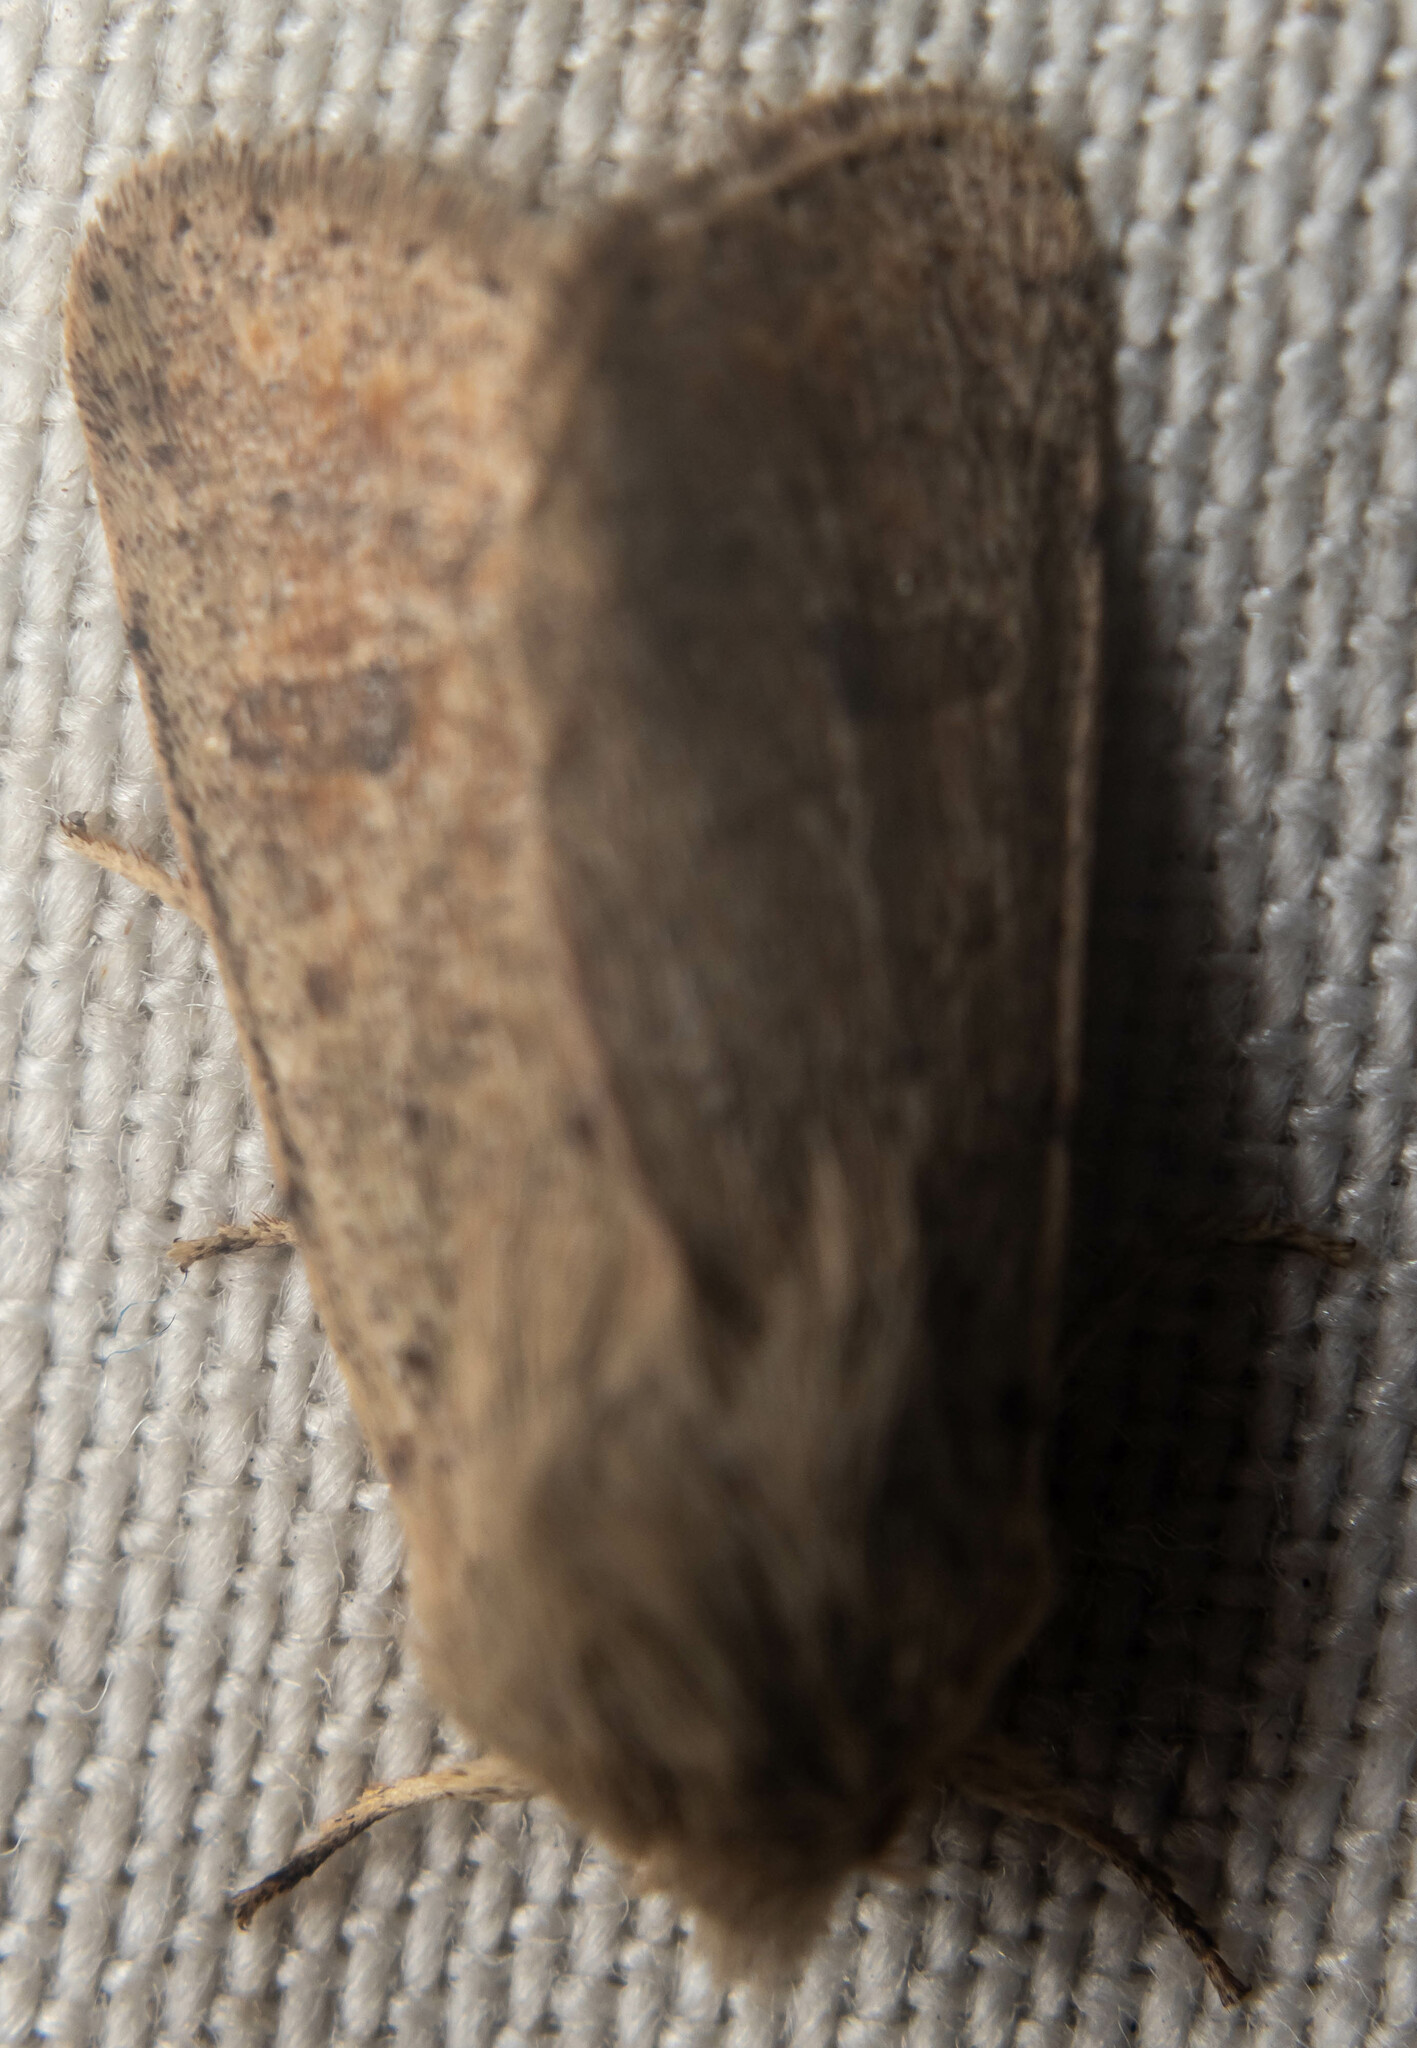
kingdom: Animalia
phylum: Arthropoda
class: Insecta
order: Lepidoptera
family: Noctuidae
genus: Orthosia
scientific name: Orthosia cruda
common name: Small quaker
